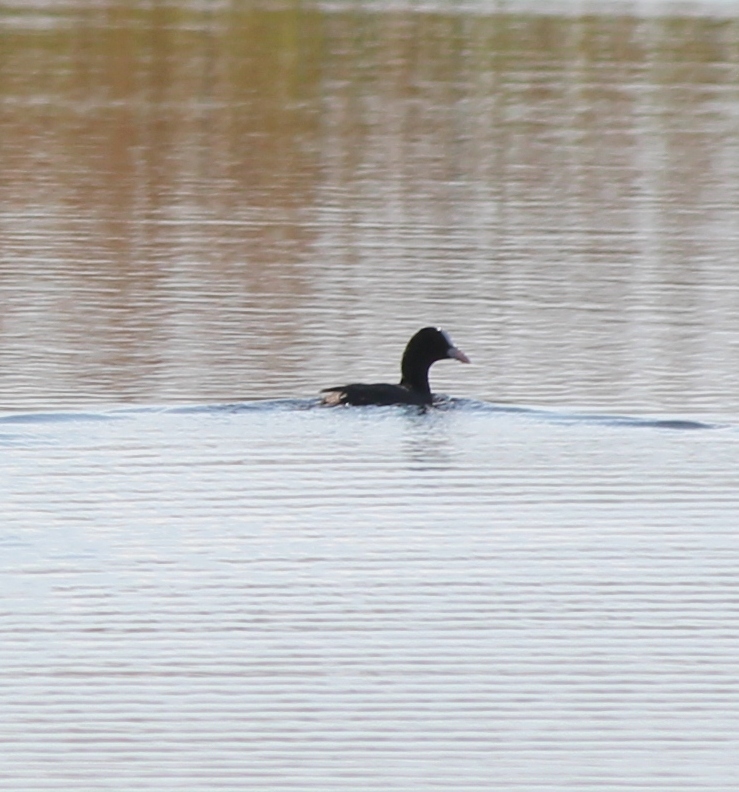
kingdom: Animalia
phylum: Chordata
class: Aves
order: Gruiformes
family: Rallidae
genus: Fulica
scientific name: Fulica atra
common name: Eurasian coot
